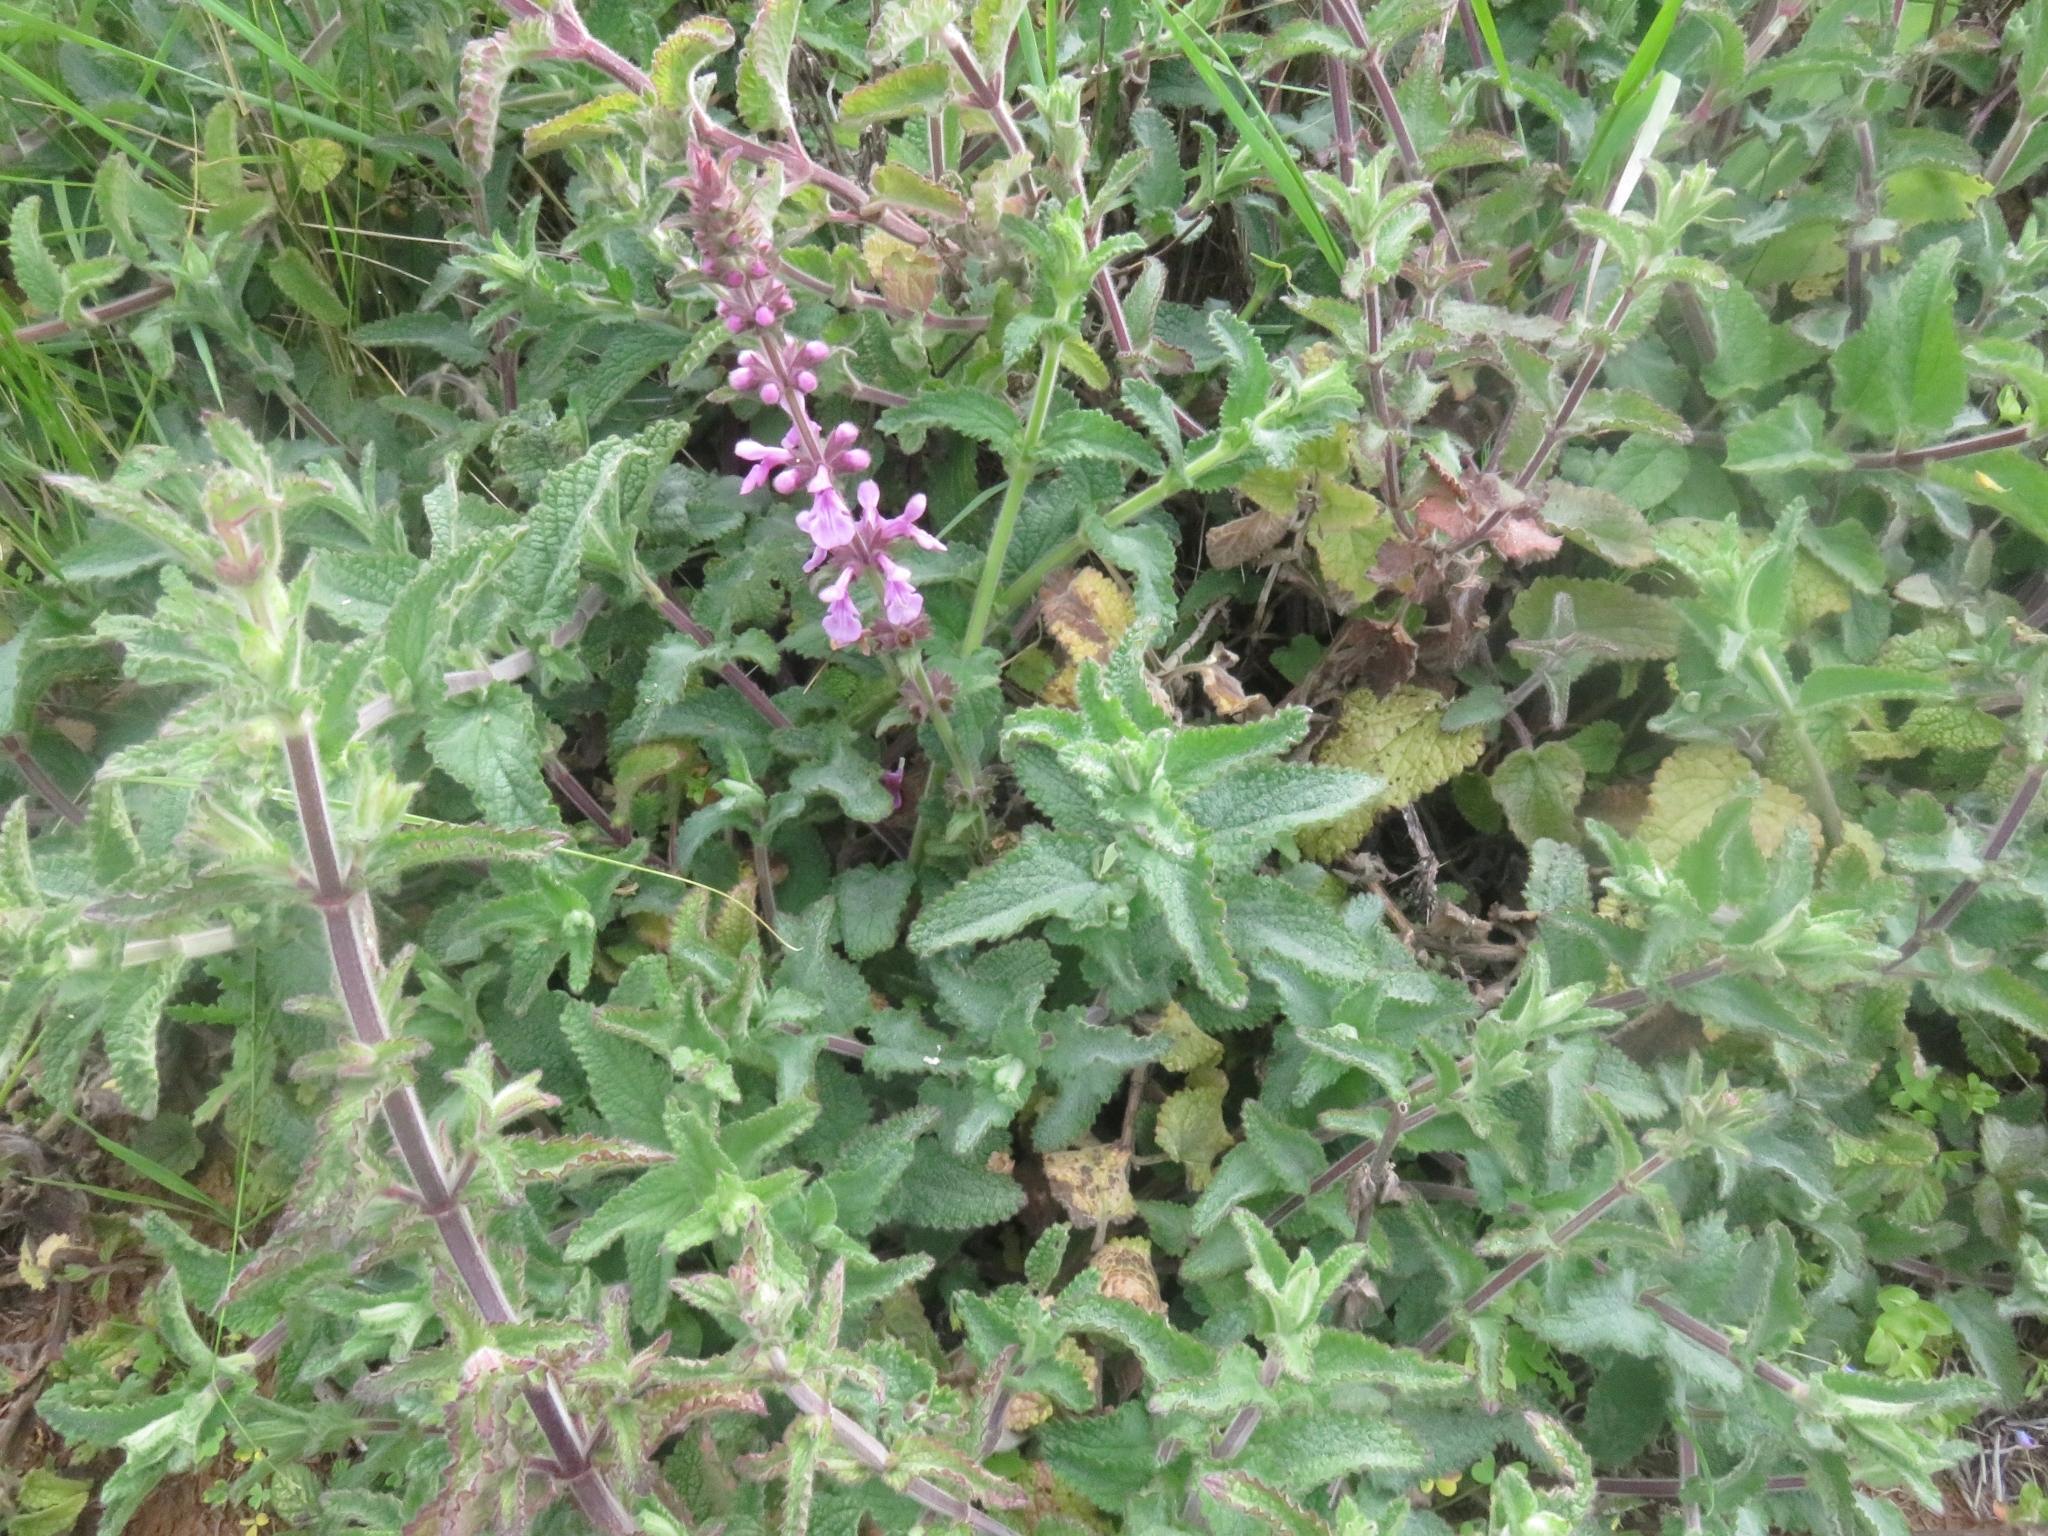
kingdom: Plantae
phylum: Tracheophyta
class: Magnoliopsida
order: Lamiales
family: Lamiaceae
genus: Stachys
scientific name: Stachys grandidentata
